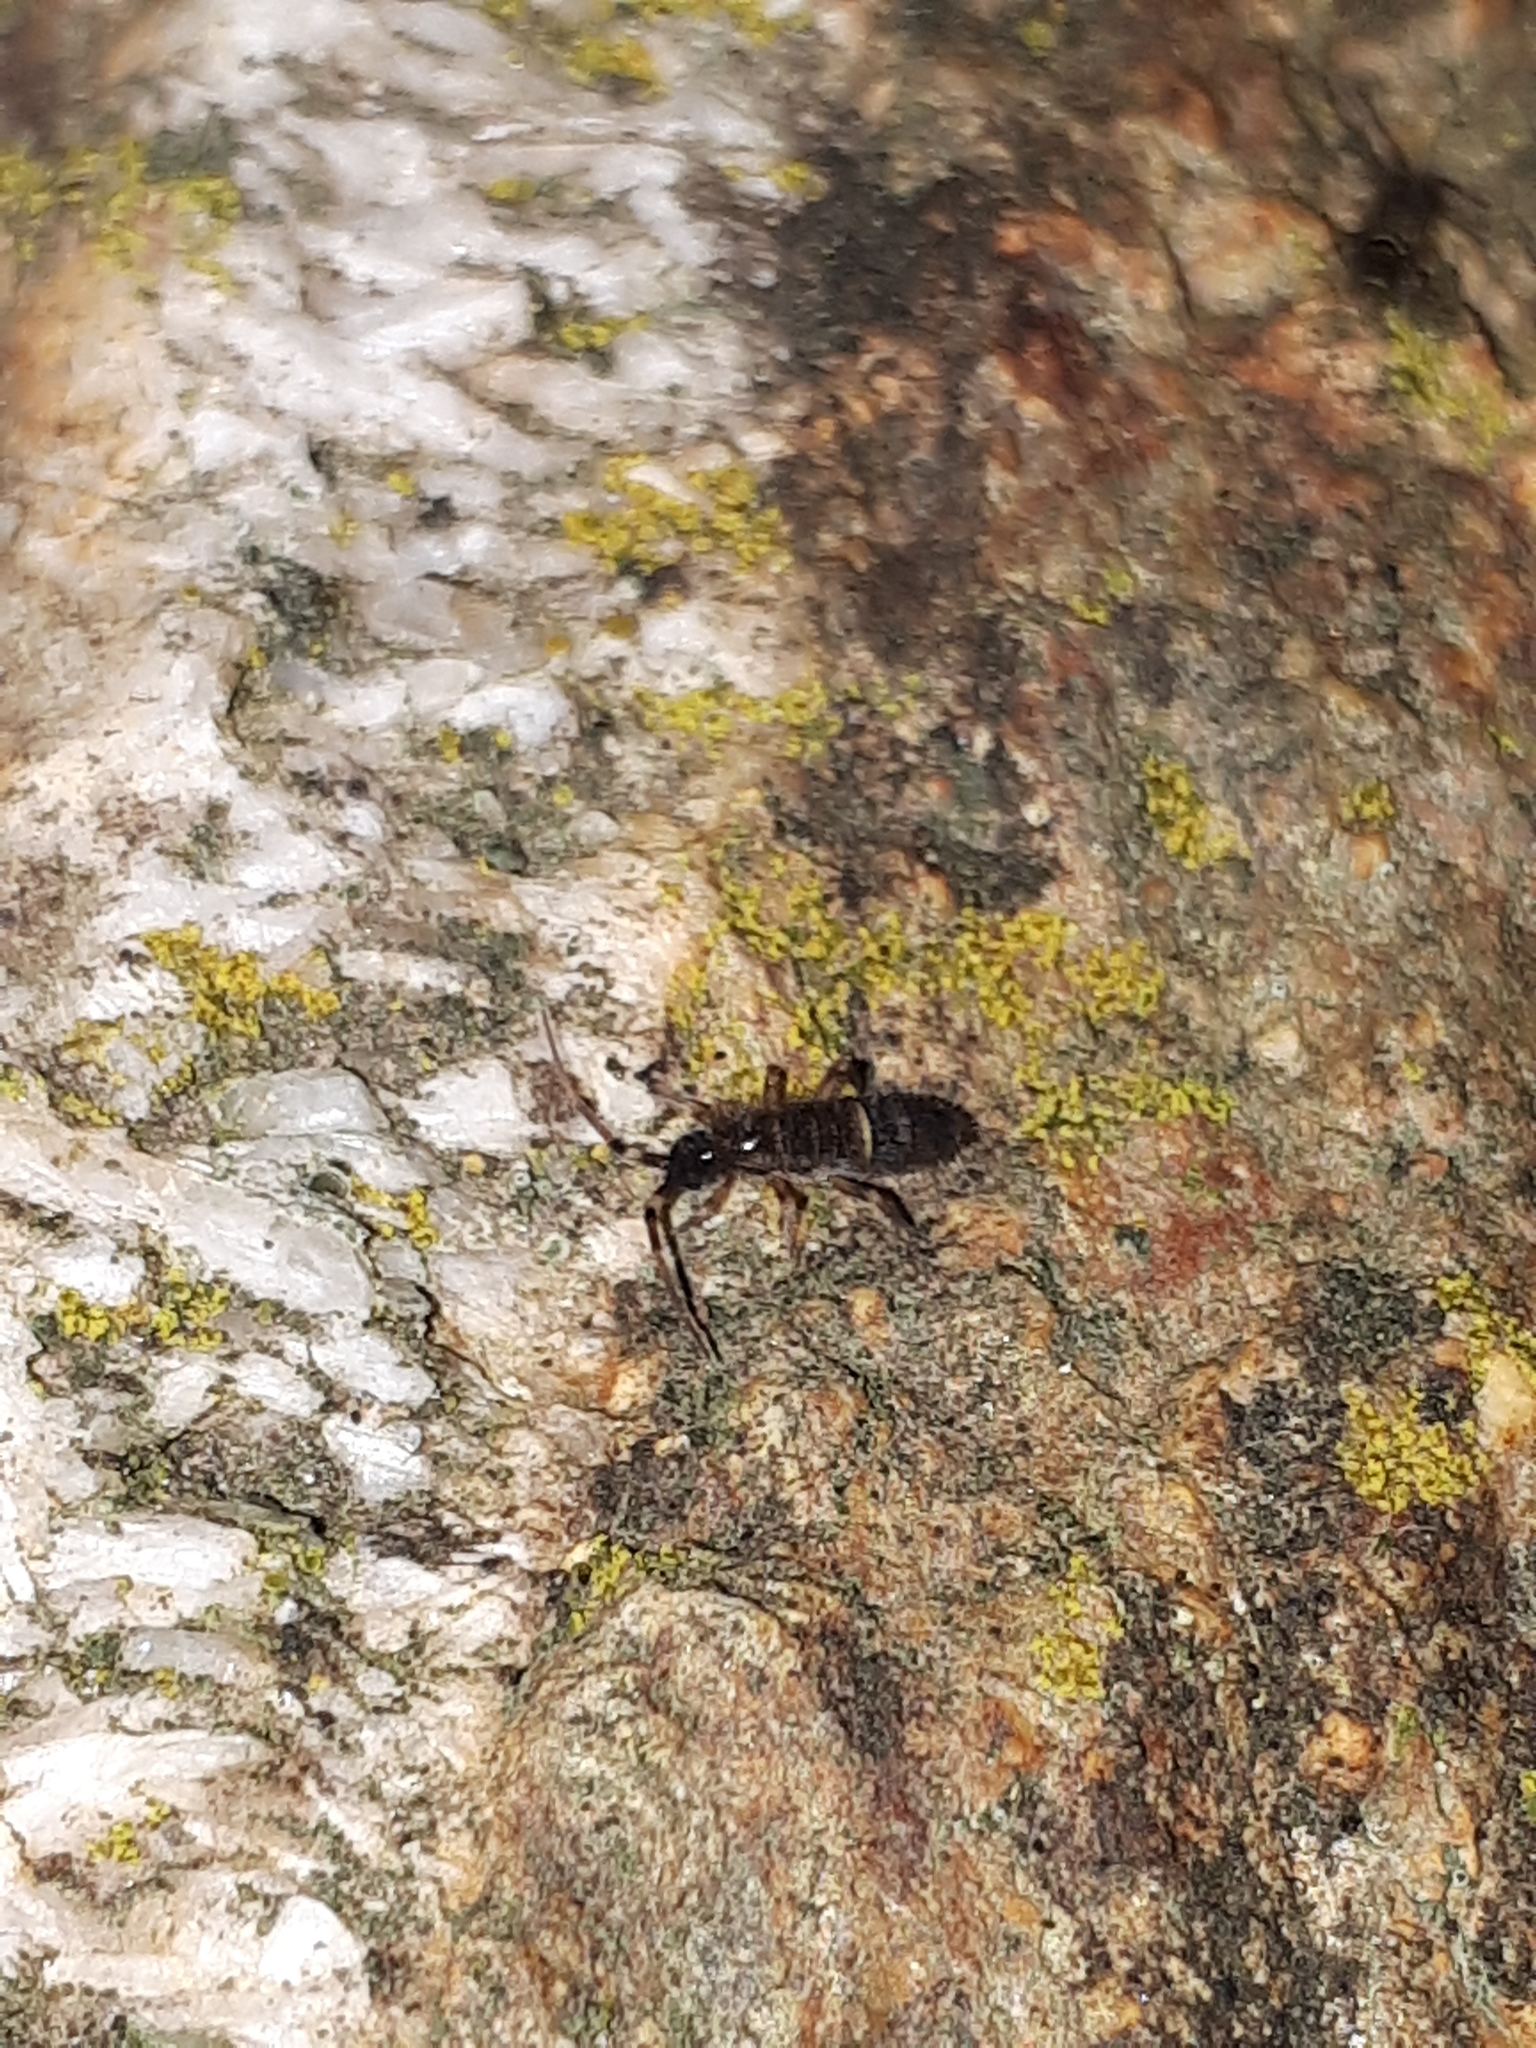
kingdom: Animalia
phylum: Arthropoda
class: Collembola
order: Entomobryomorpha
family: Orchesellidae
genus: Orchesella
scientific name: Orchesella cincta
